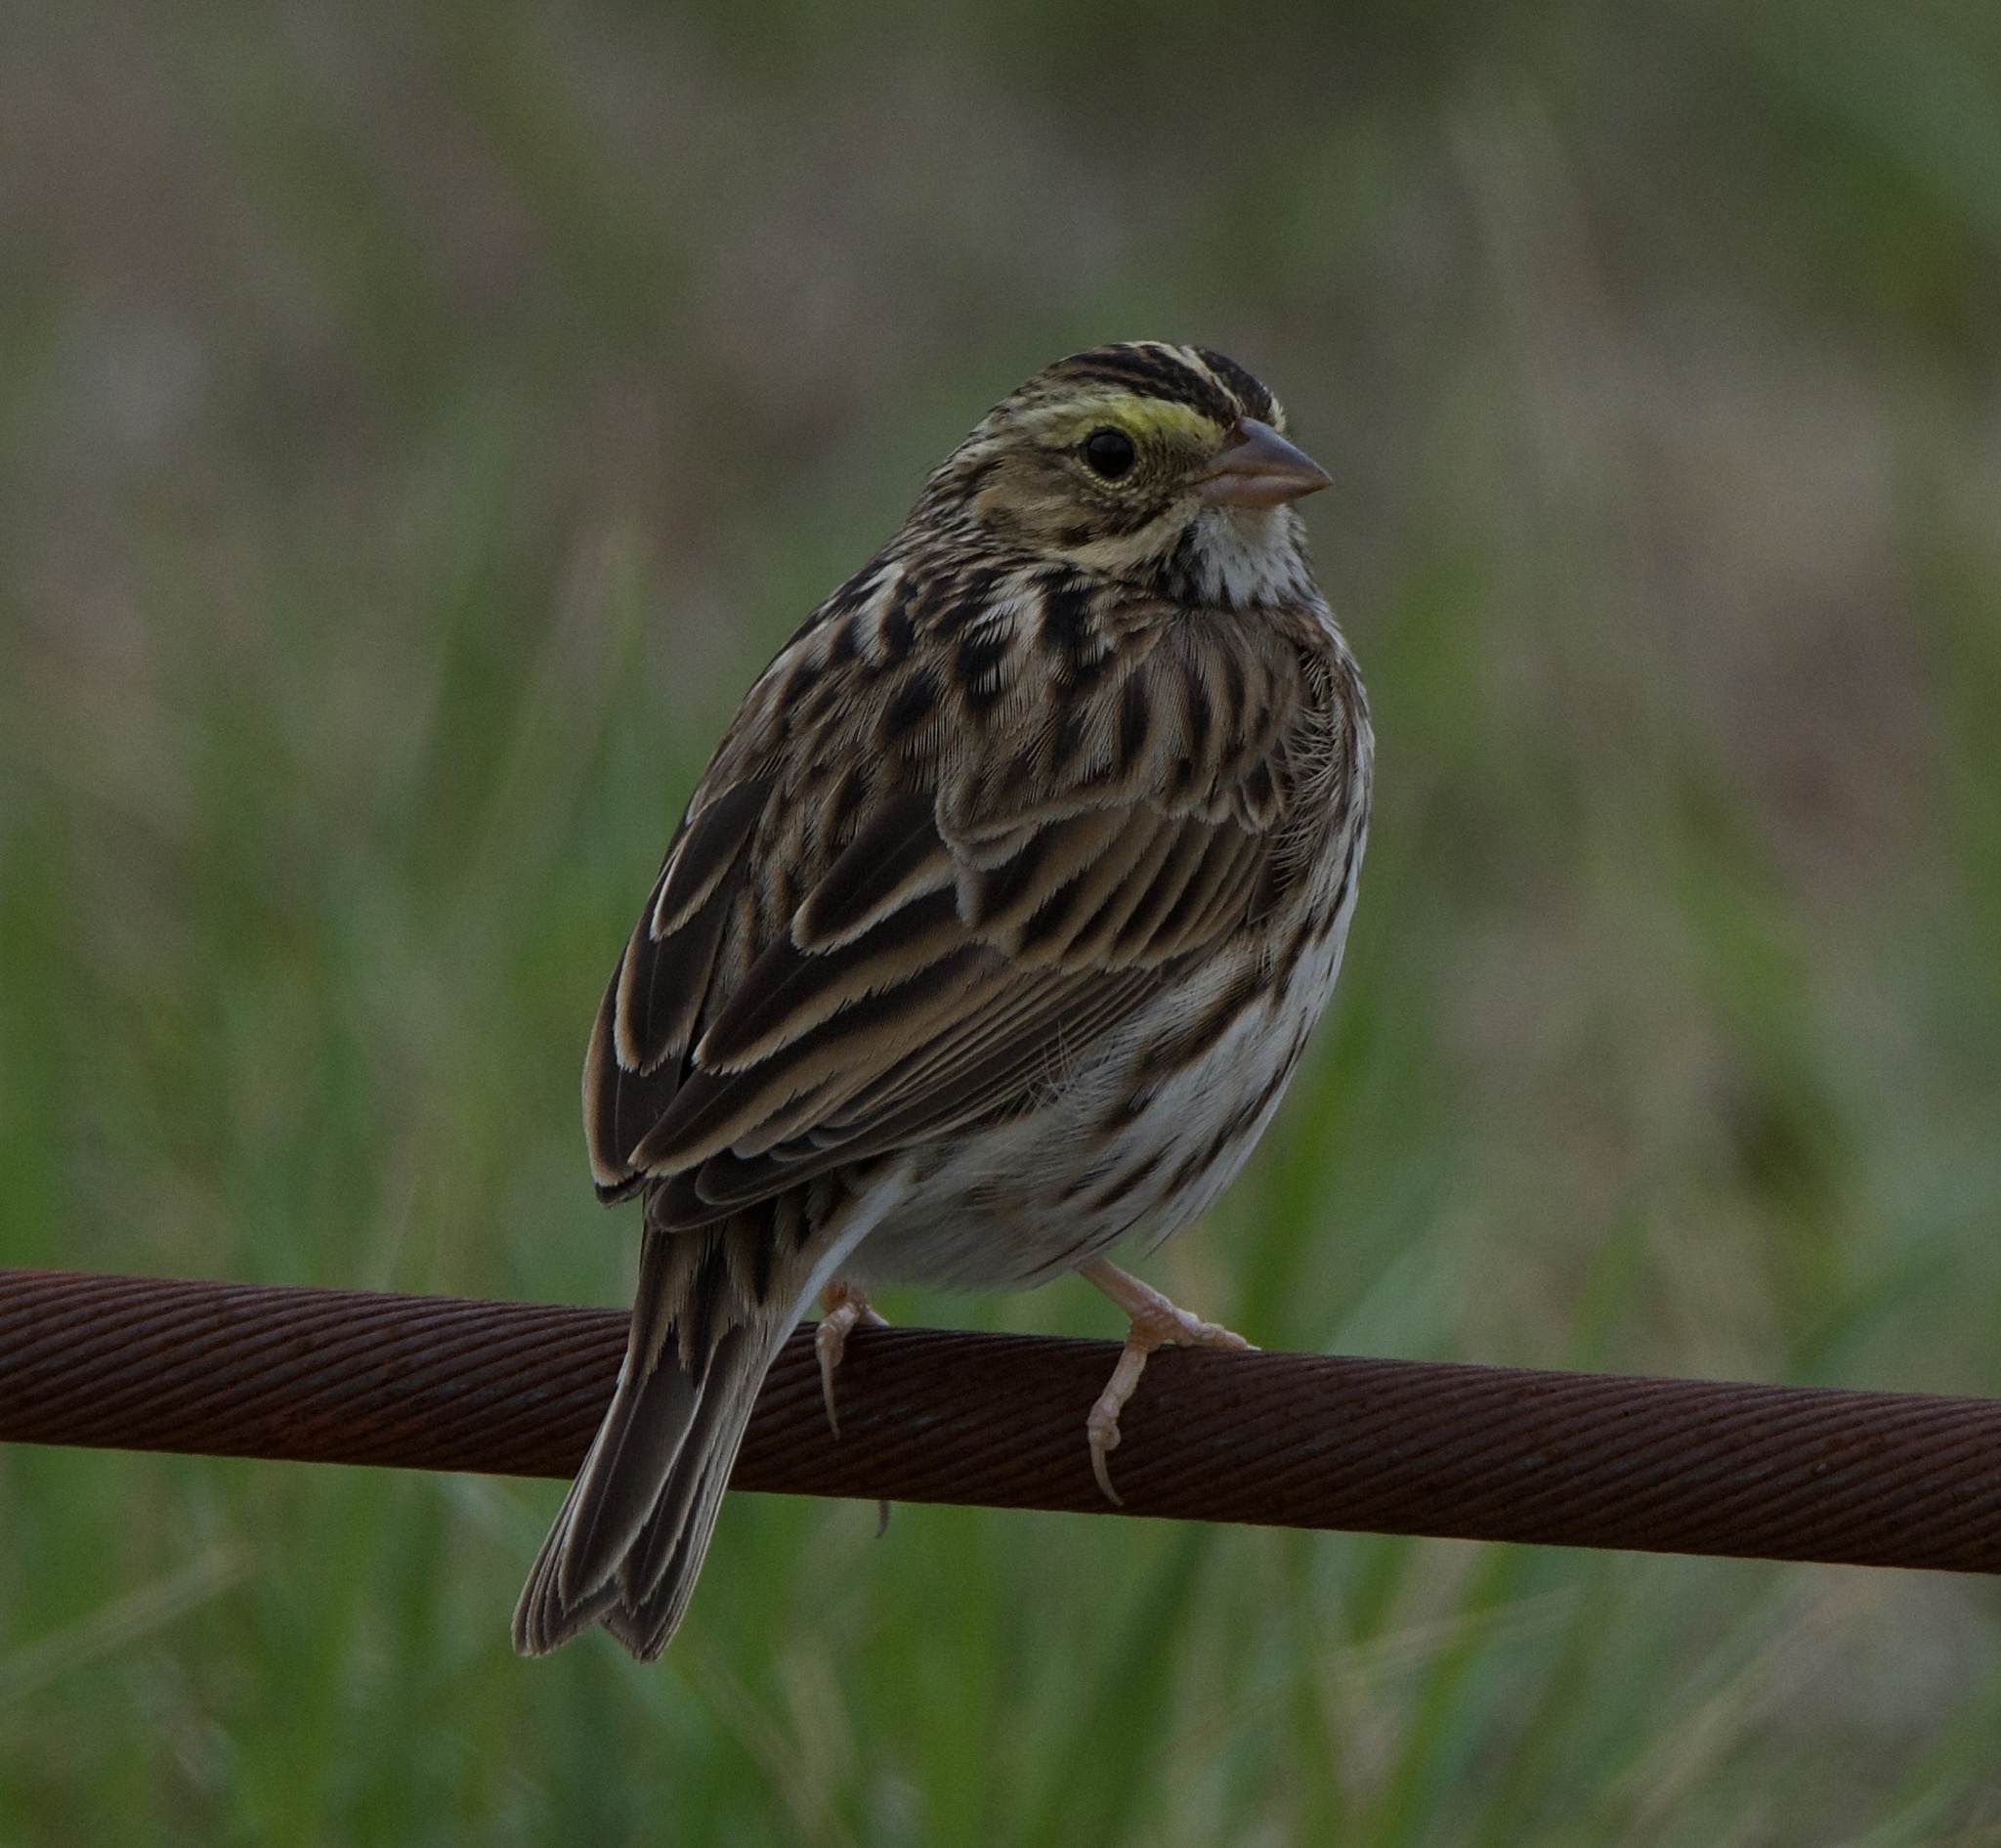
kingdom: Animalia
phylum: Chordata
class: Aves
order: Passeriformes
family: Passerellidae
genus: Passerculus
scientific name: Passerculus sandwichensis
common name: Savannah sparrow
